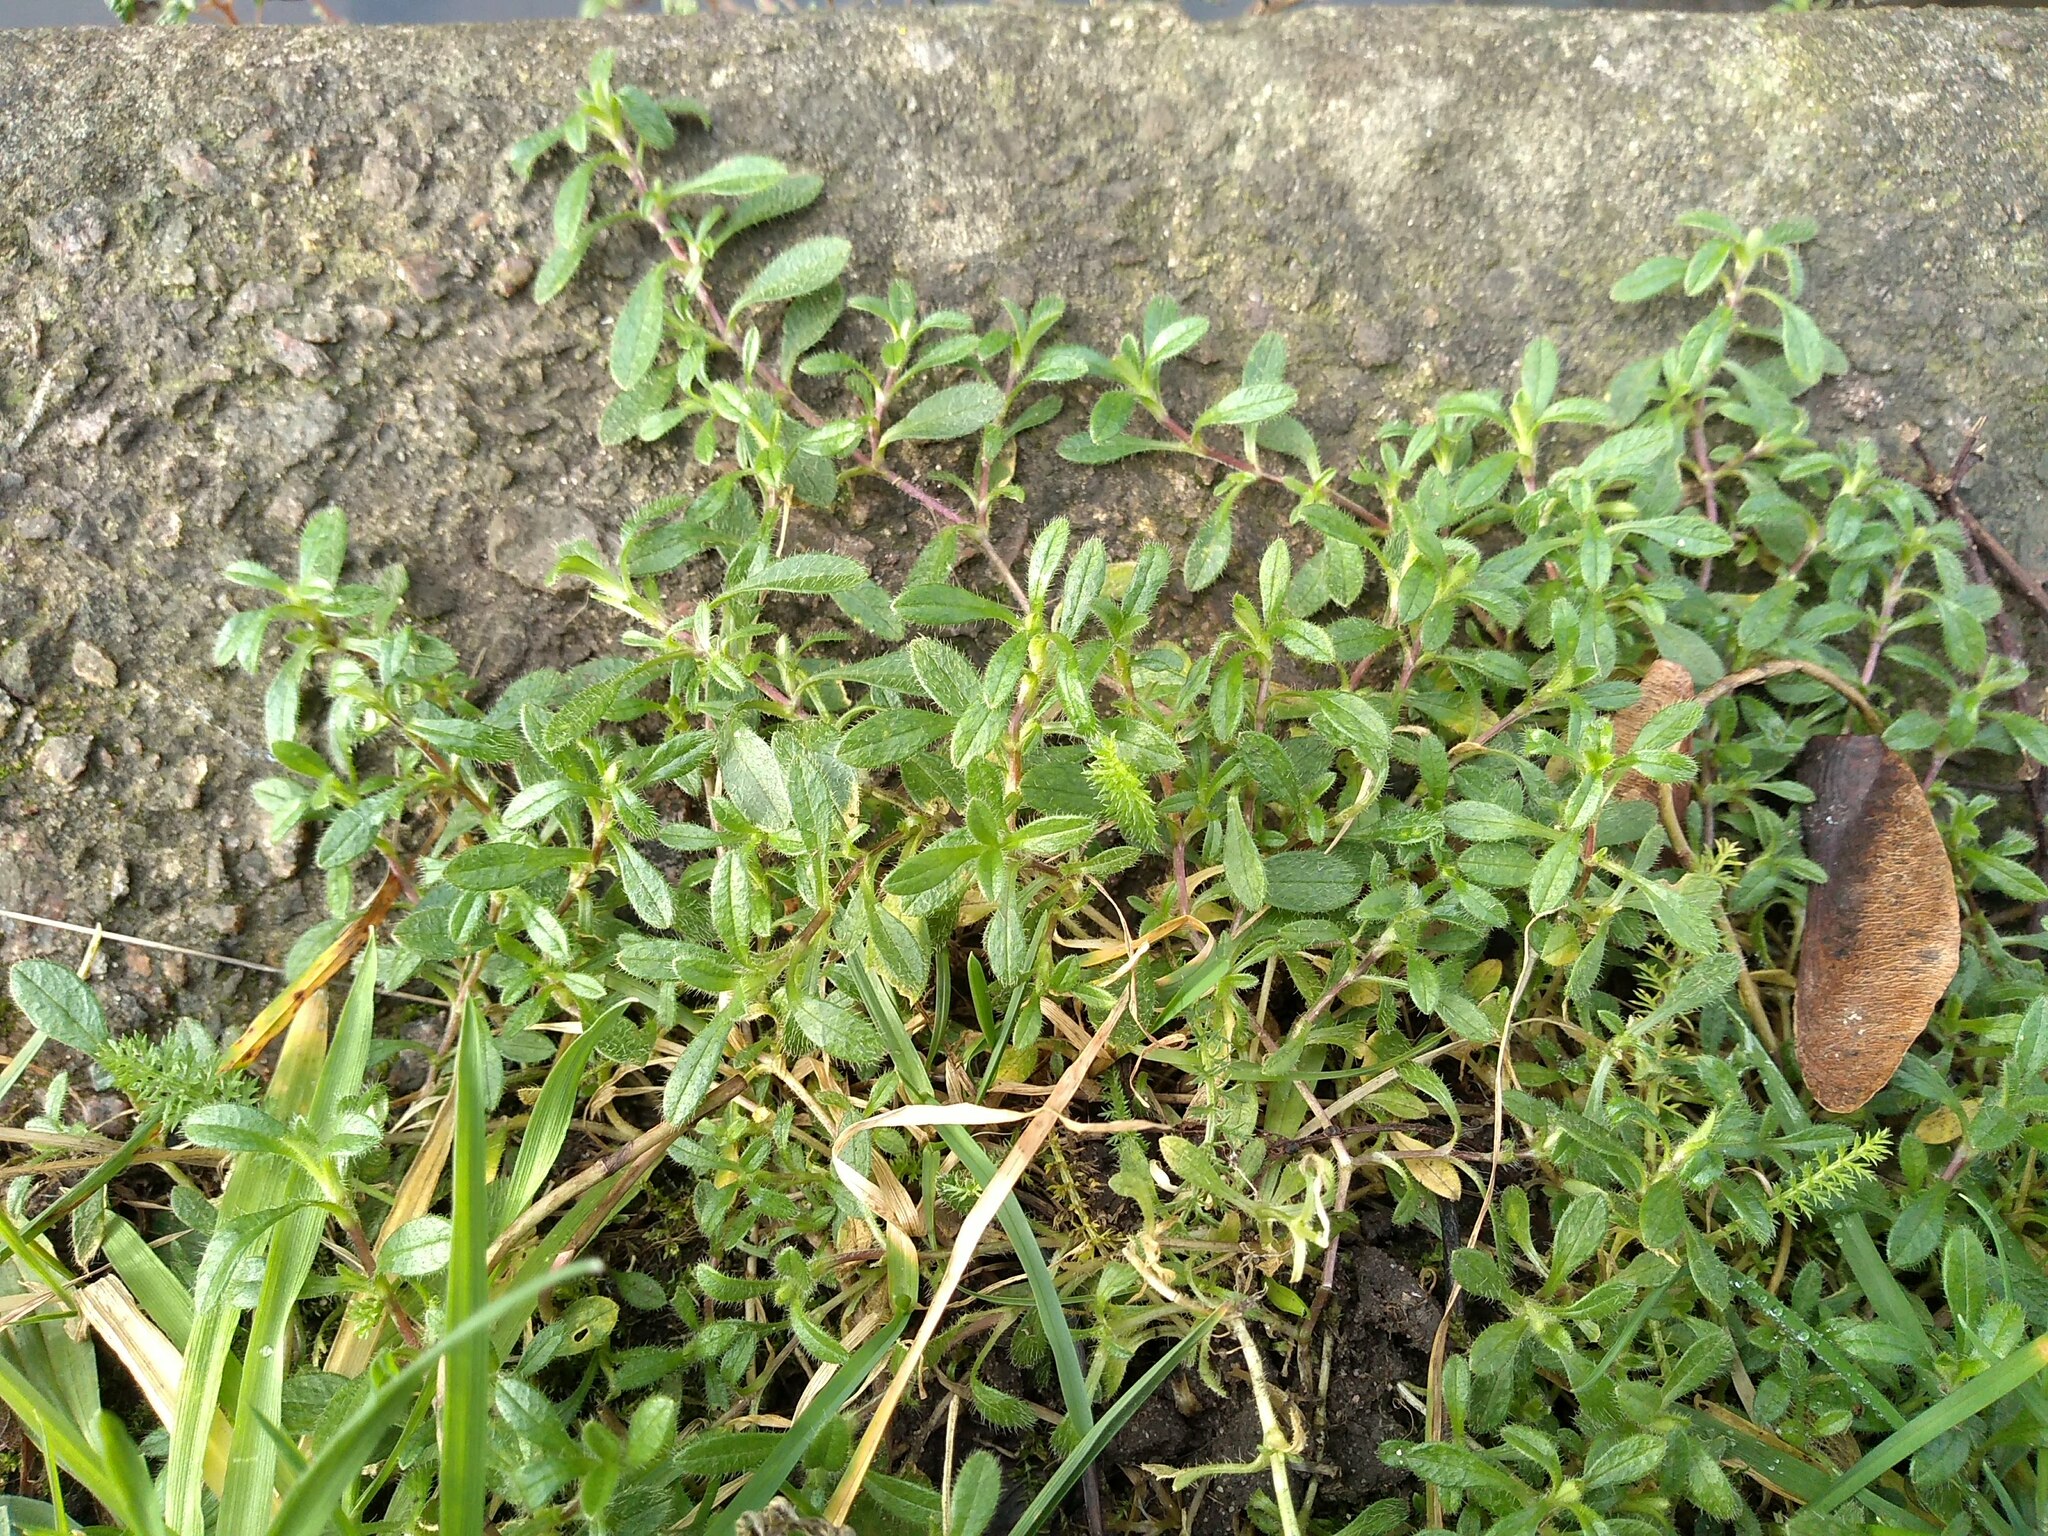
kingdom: Plantae
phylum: Tracheophyta
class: Magnoliopsida
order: Caryophyllales
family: Caryophyllaceae
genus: Cerastium
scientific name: Cerastium holosteoides
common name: Big chickweed
